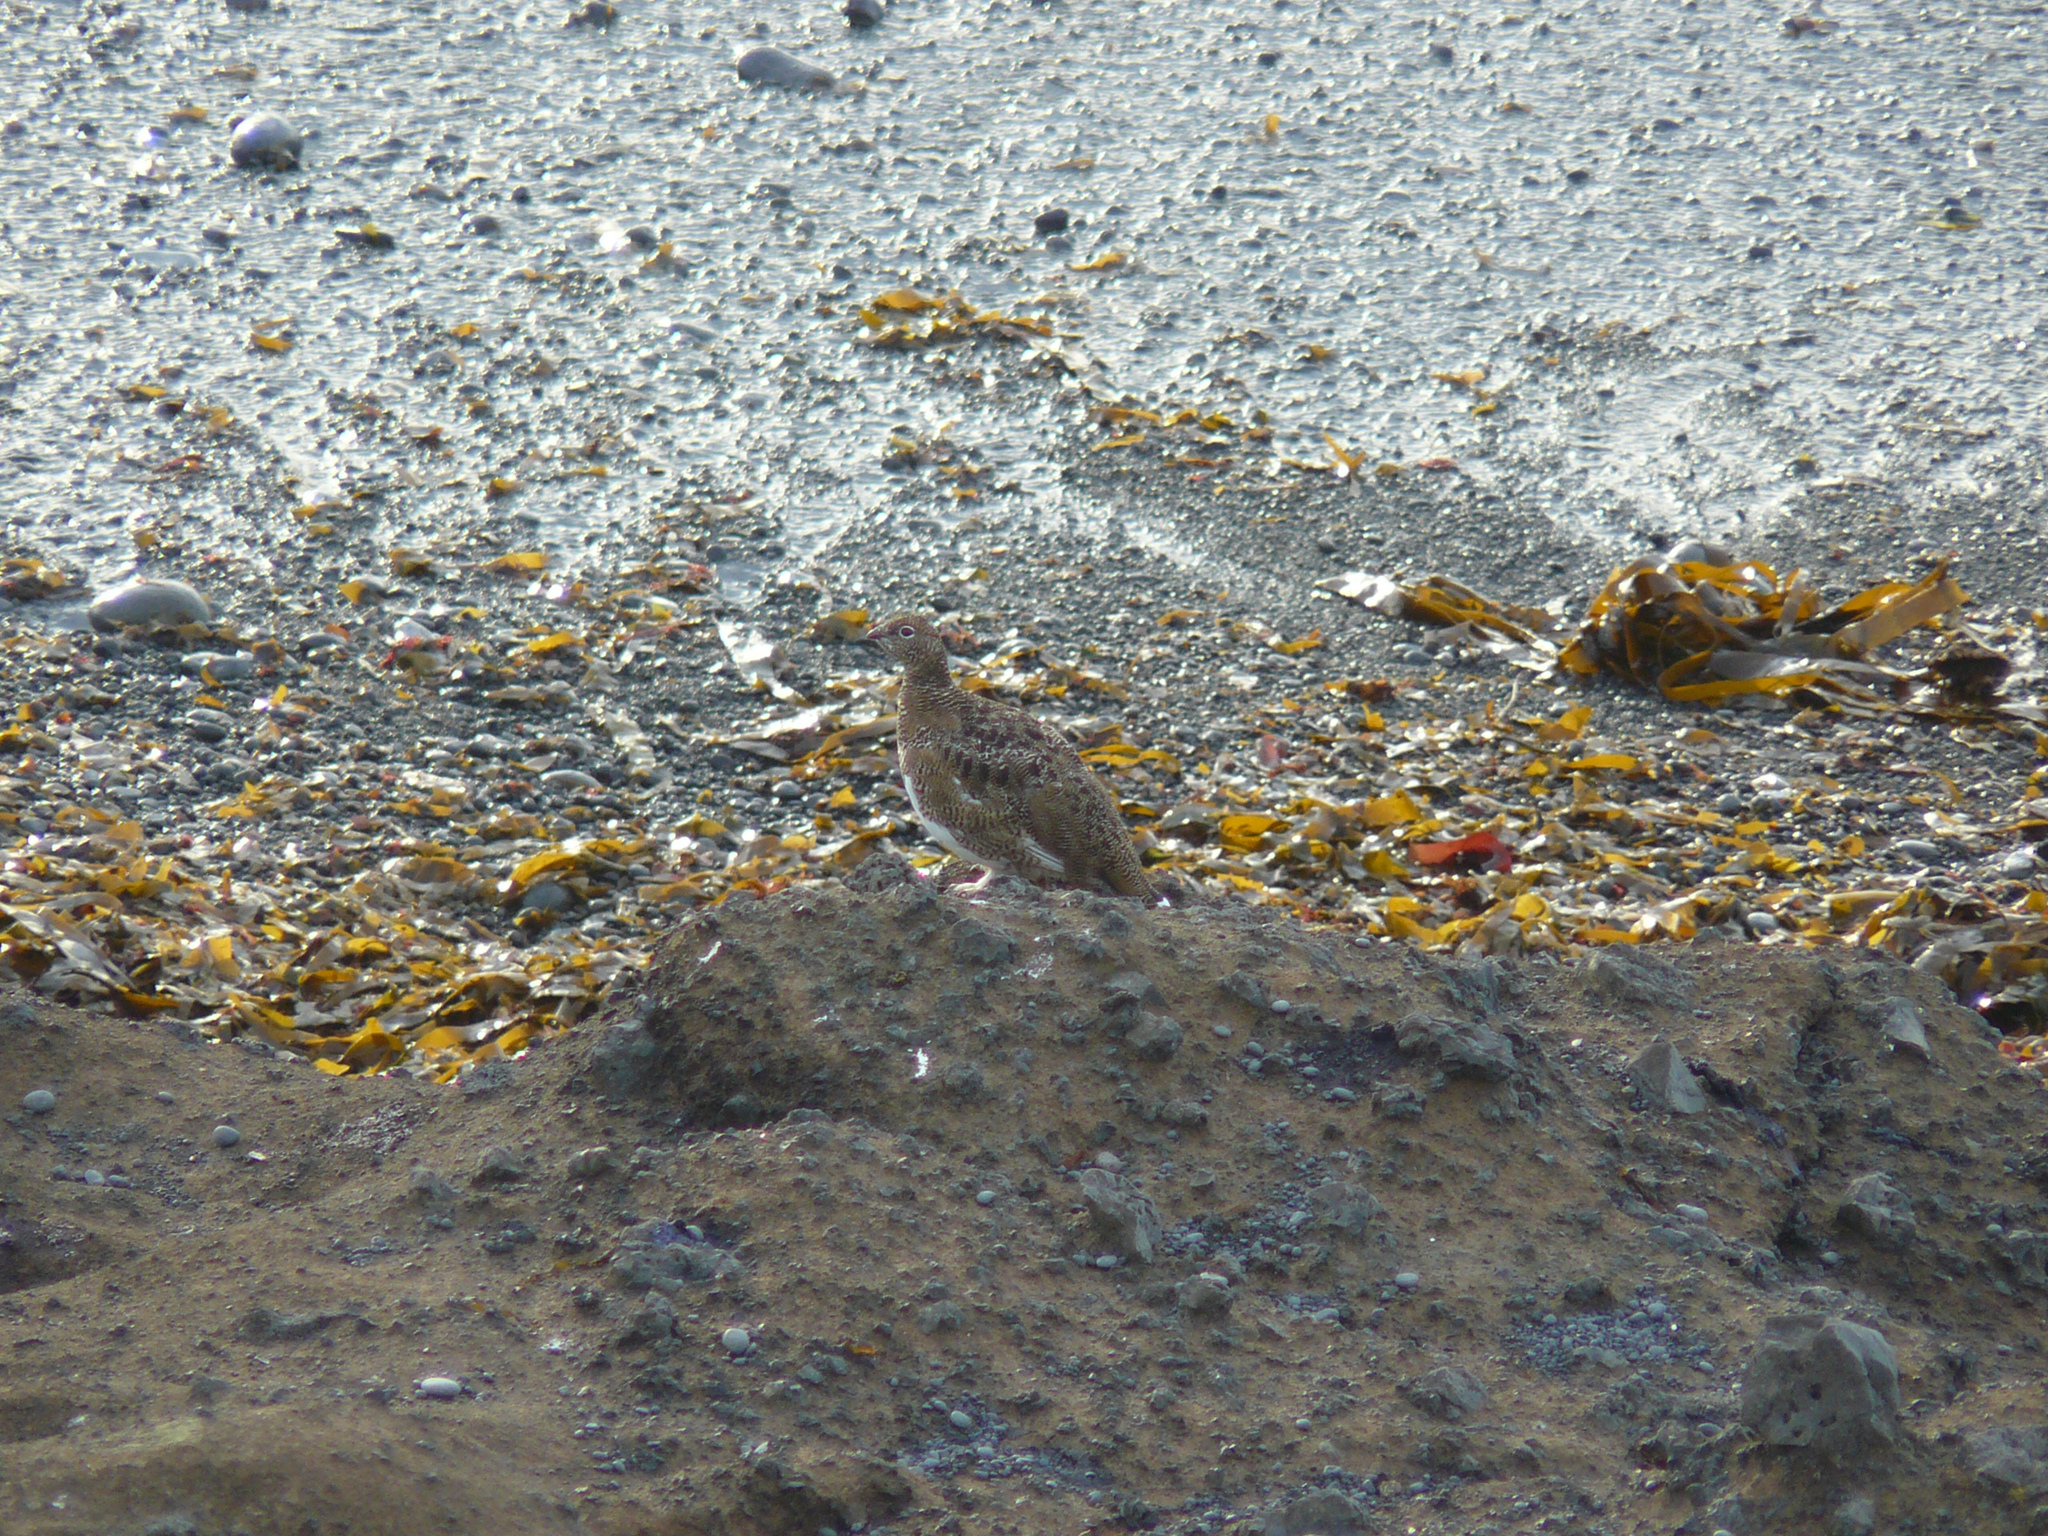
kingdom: Animalia
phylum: Chordata
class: Aves
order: Galliformes
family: Phasianidae
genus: Lagopus
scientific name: Lagopus muta
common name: Rock ptarmigan
